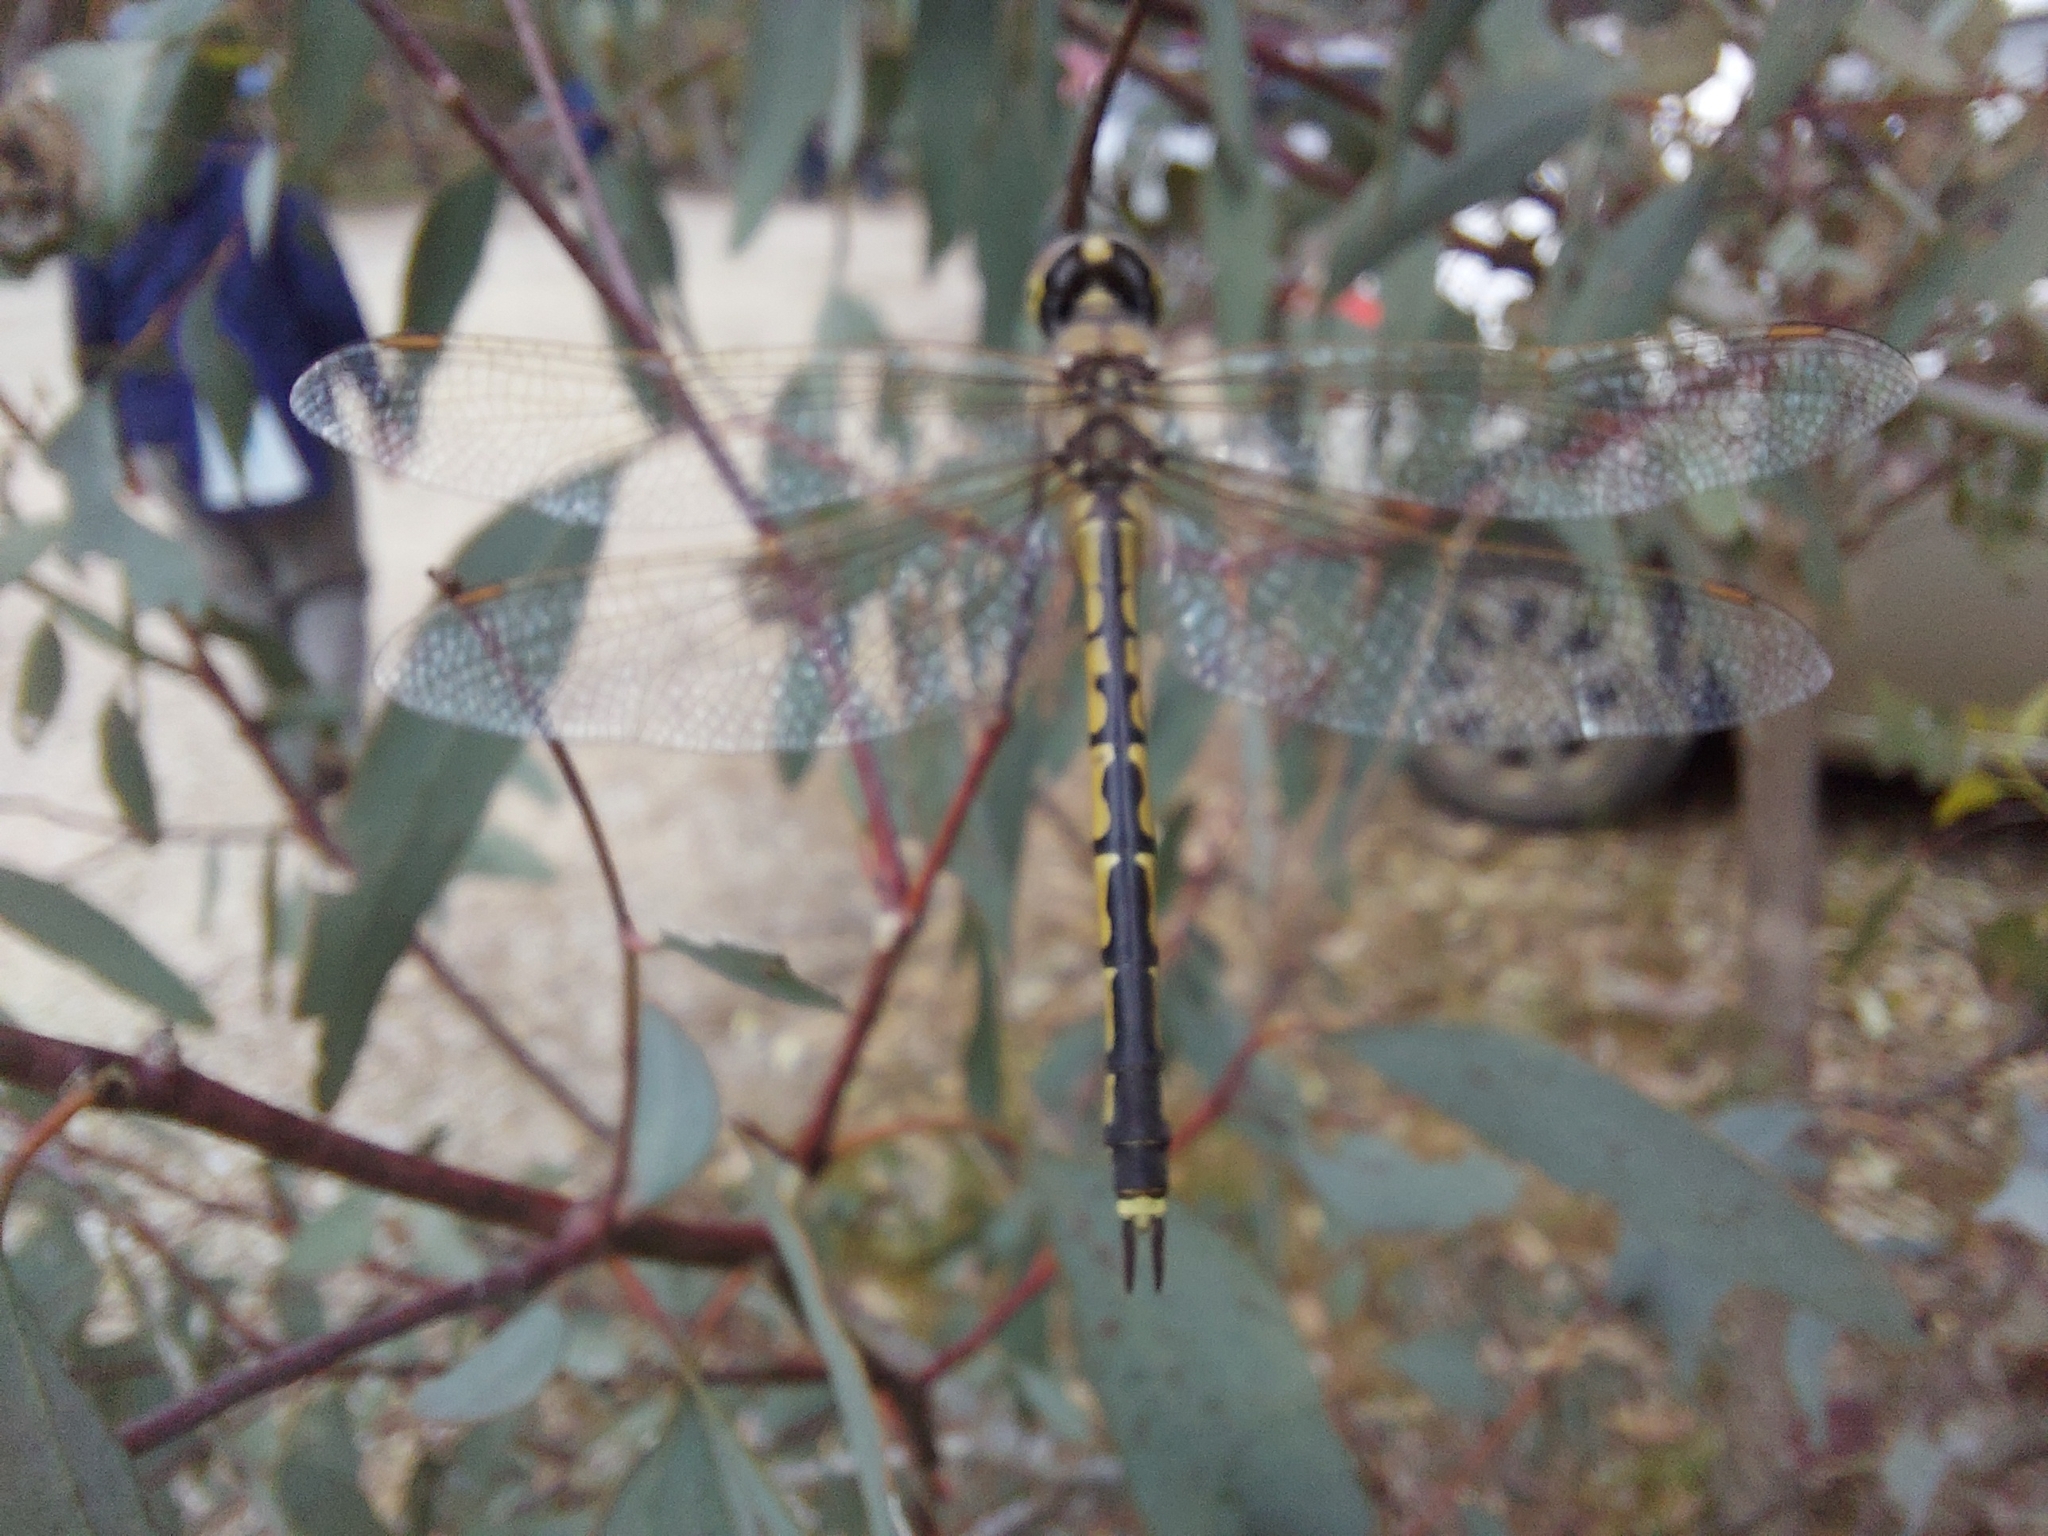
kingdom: Animalia
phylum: Arthropoda
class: Insecta
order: Odonata
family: Corduliidae
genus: Hemicordulia
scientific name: Hemicordulia tau
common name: Tau emerald
